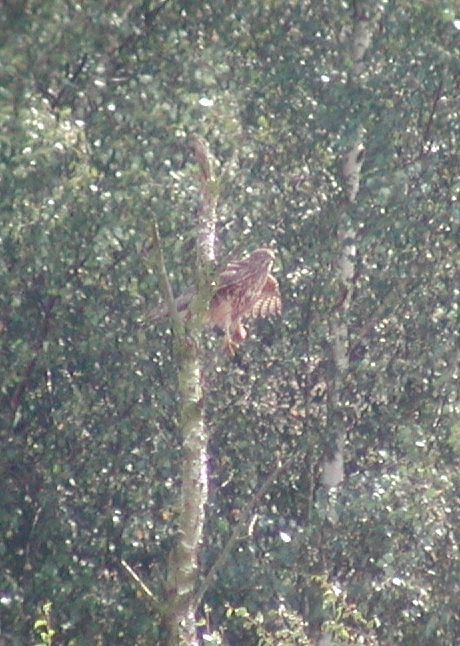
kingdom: Animalia
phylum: Chordata
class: Aves
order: Accipitriformes
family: Accipitridae
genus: Accipiter
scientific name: Accipiter gentilis
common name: Northern goshawk
